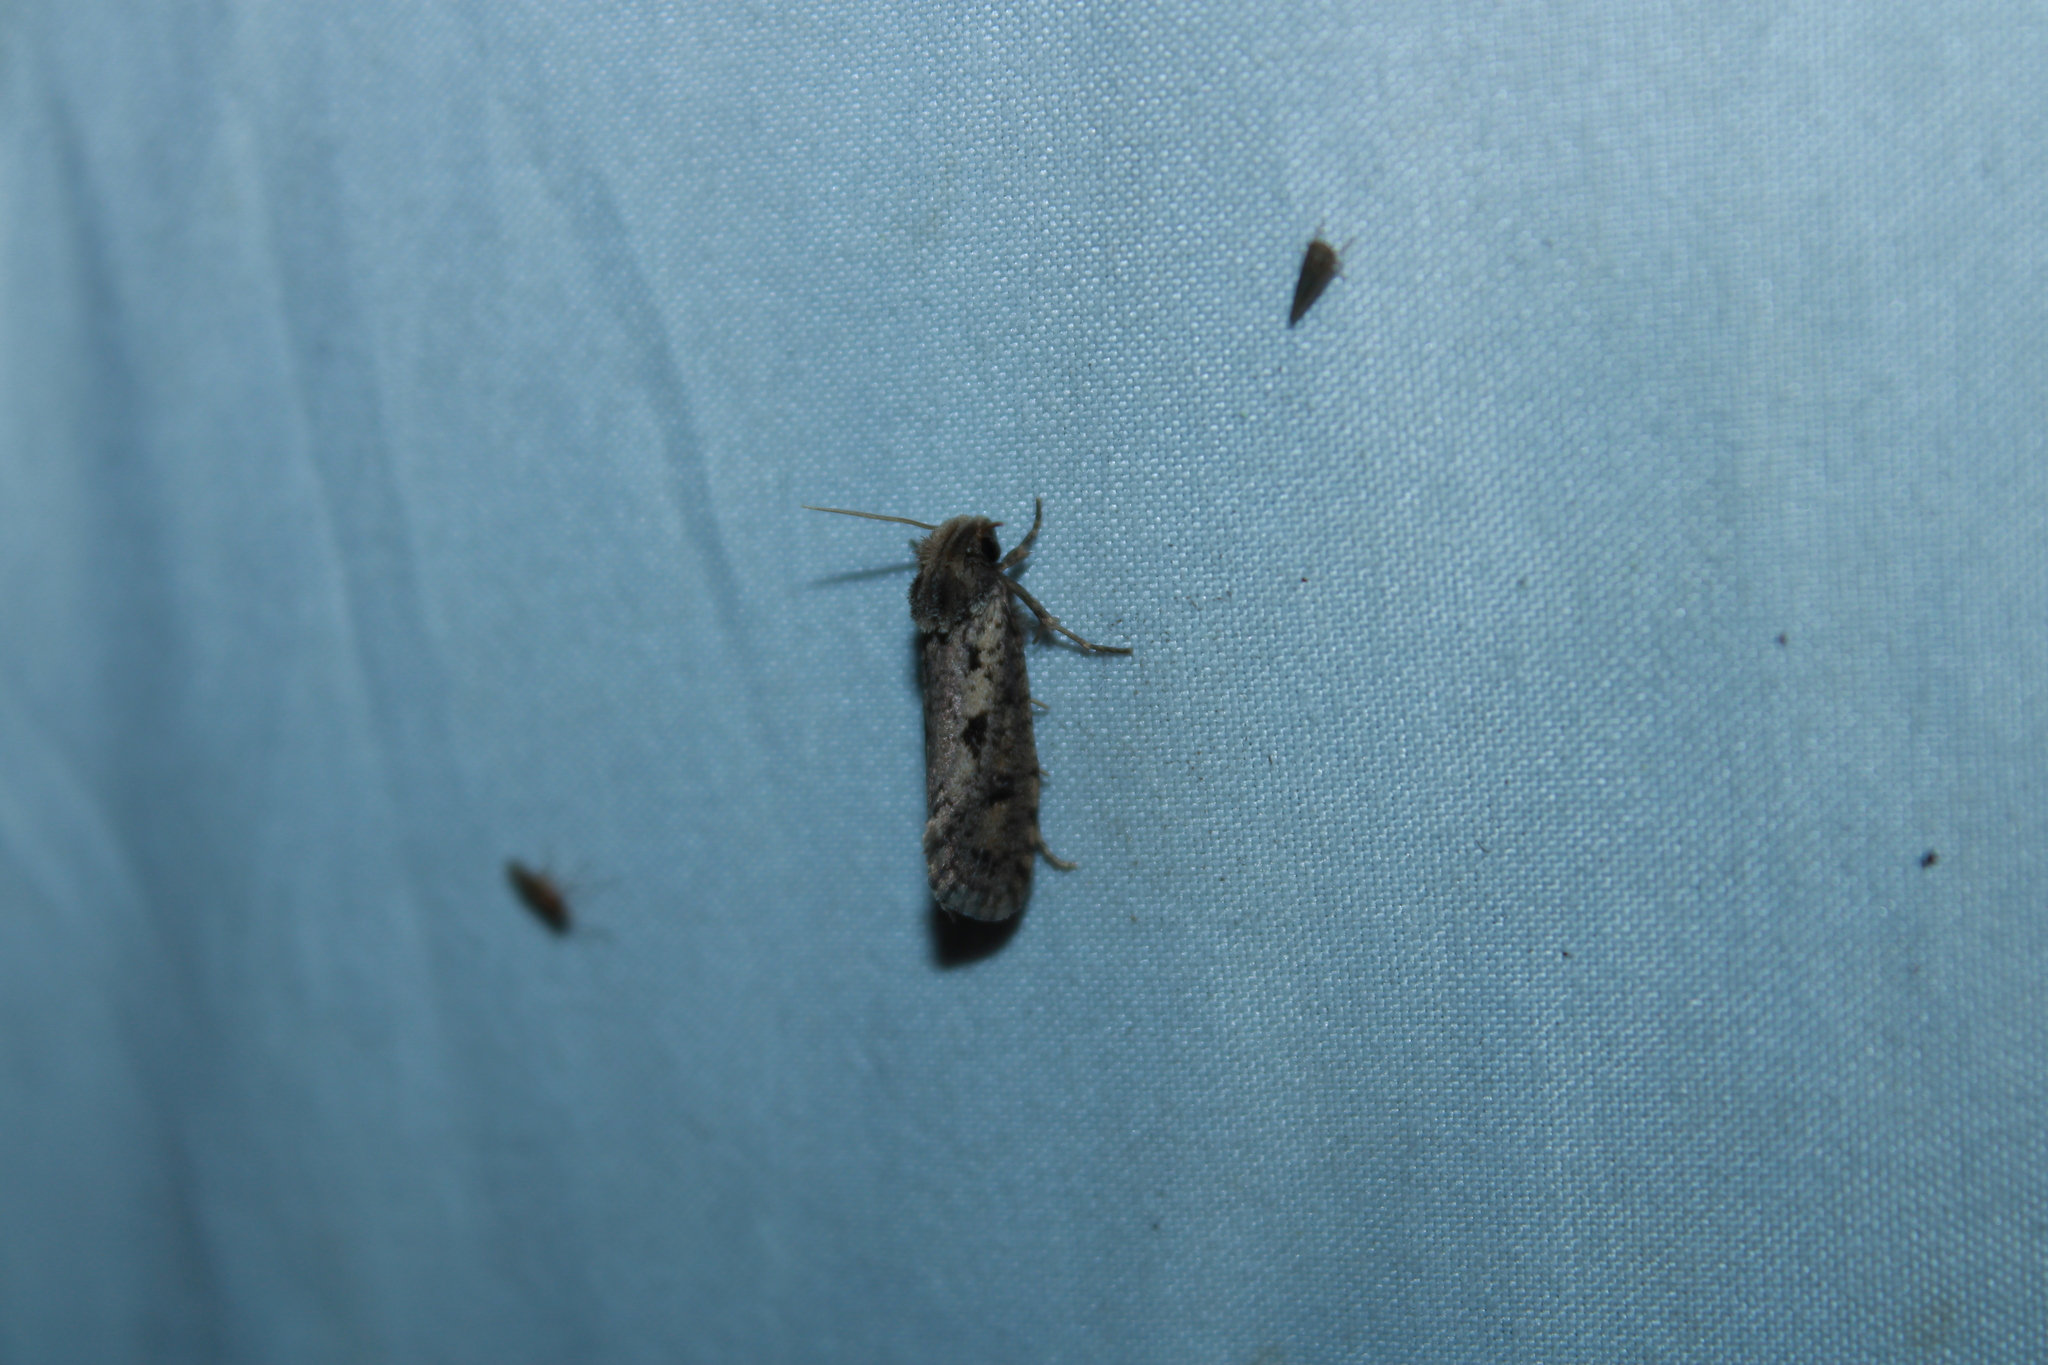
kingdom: Animalia
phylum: Arthropoda
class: Insecta
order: Lepidoptera
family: Tineidae
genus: Acrolophus
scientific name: Acrolophus popeanella
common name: Clemens' grass tubeworm moth
